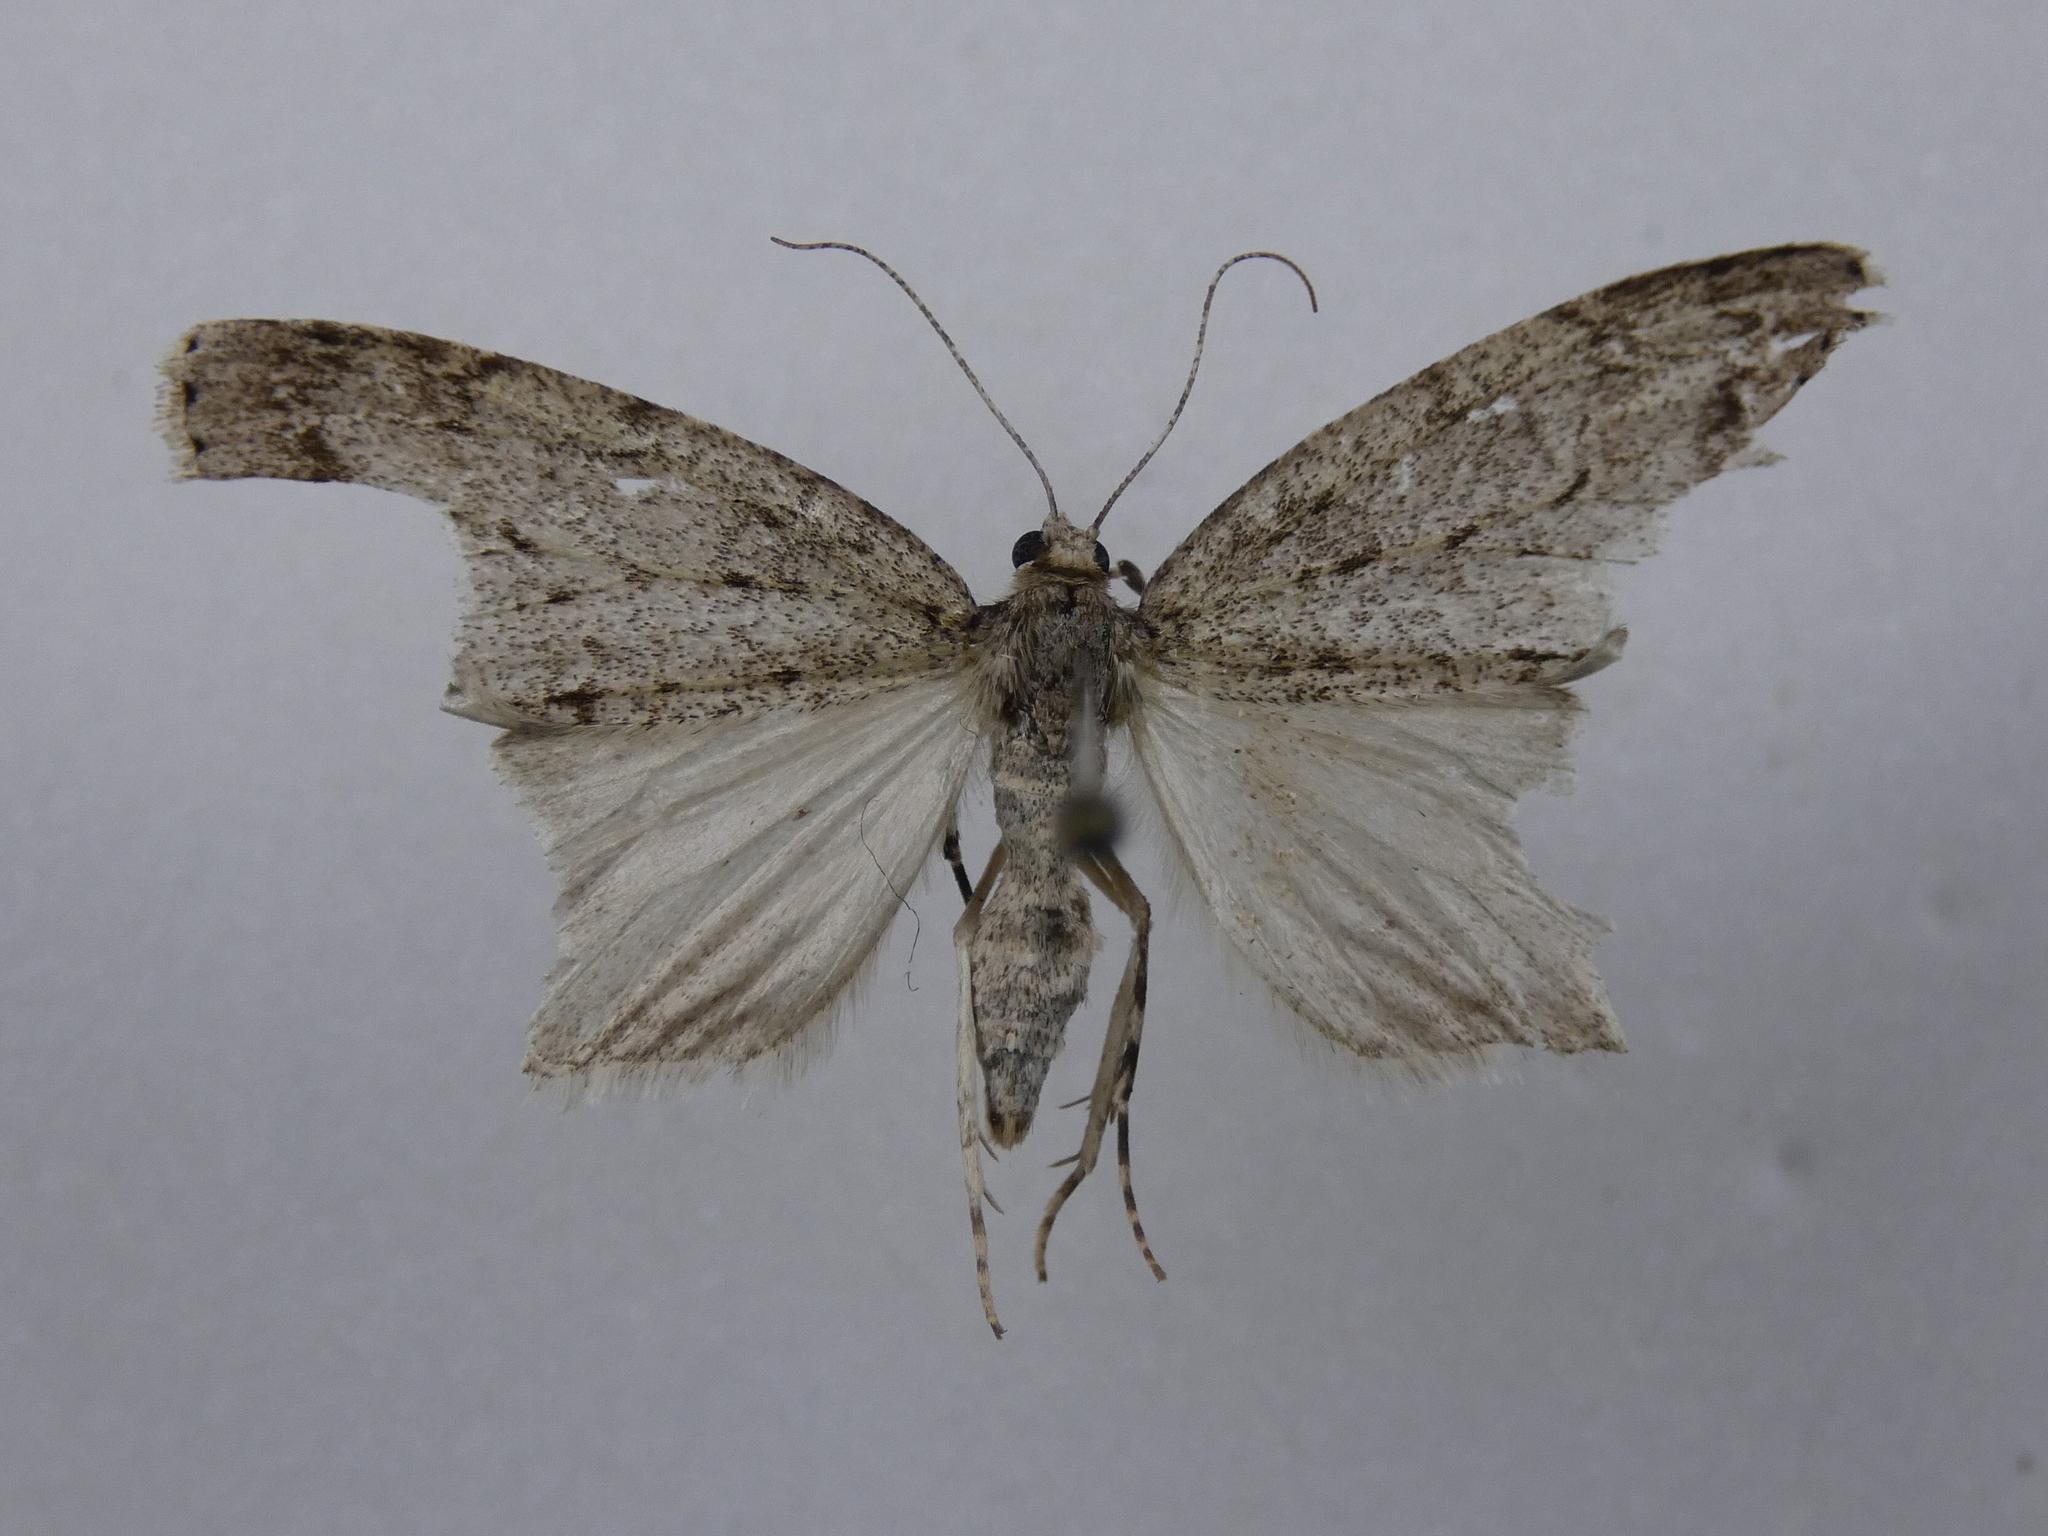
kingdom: Animalia
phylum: Arthropoda
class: Insecta
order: Lepidoptera
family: Geometridae
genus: Pseudocoremia
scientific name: Pseudocoremia fenerata
